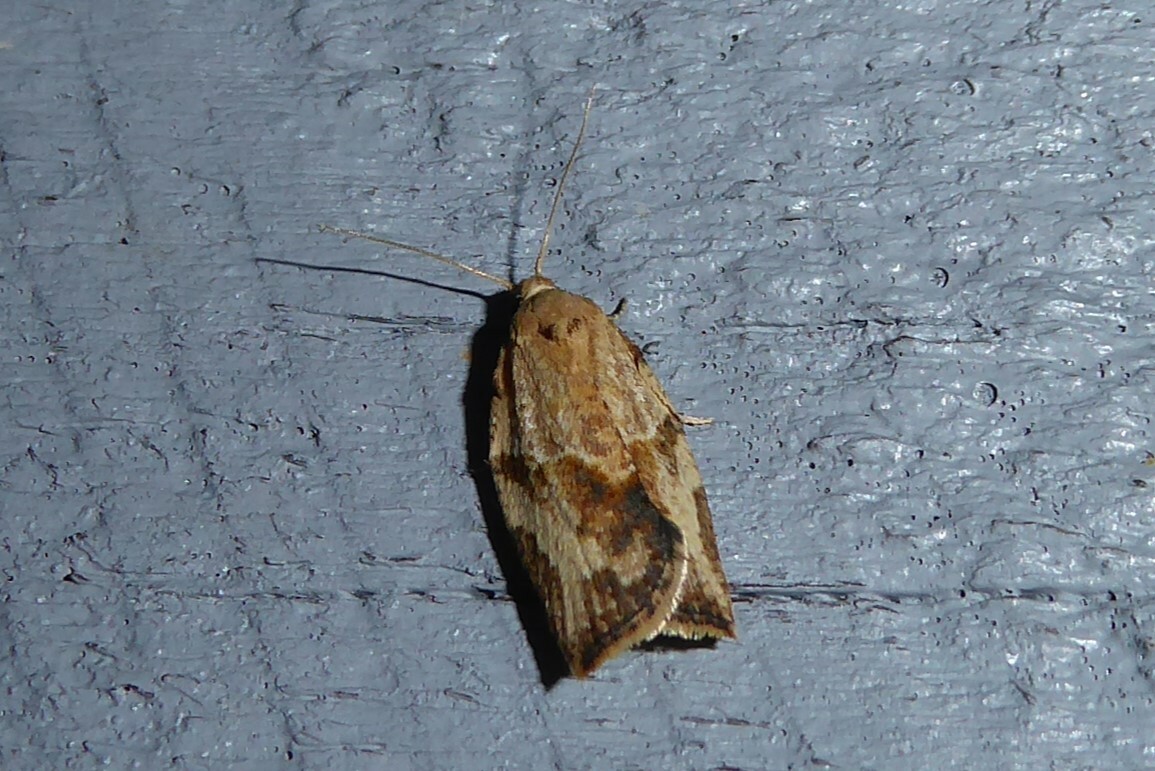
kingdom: Animalia
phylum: Arthropoda
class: Insecta
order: Lepidoptera
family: Tortricidae
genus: Epiphyas
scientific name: Epiphyas postvittana
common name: Light brown apple moth
